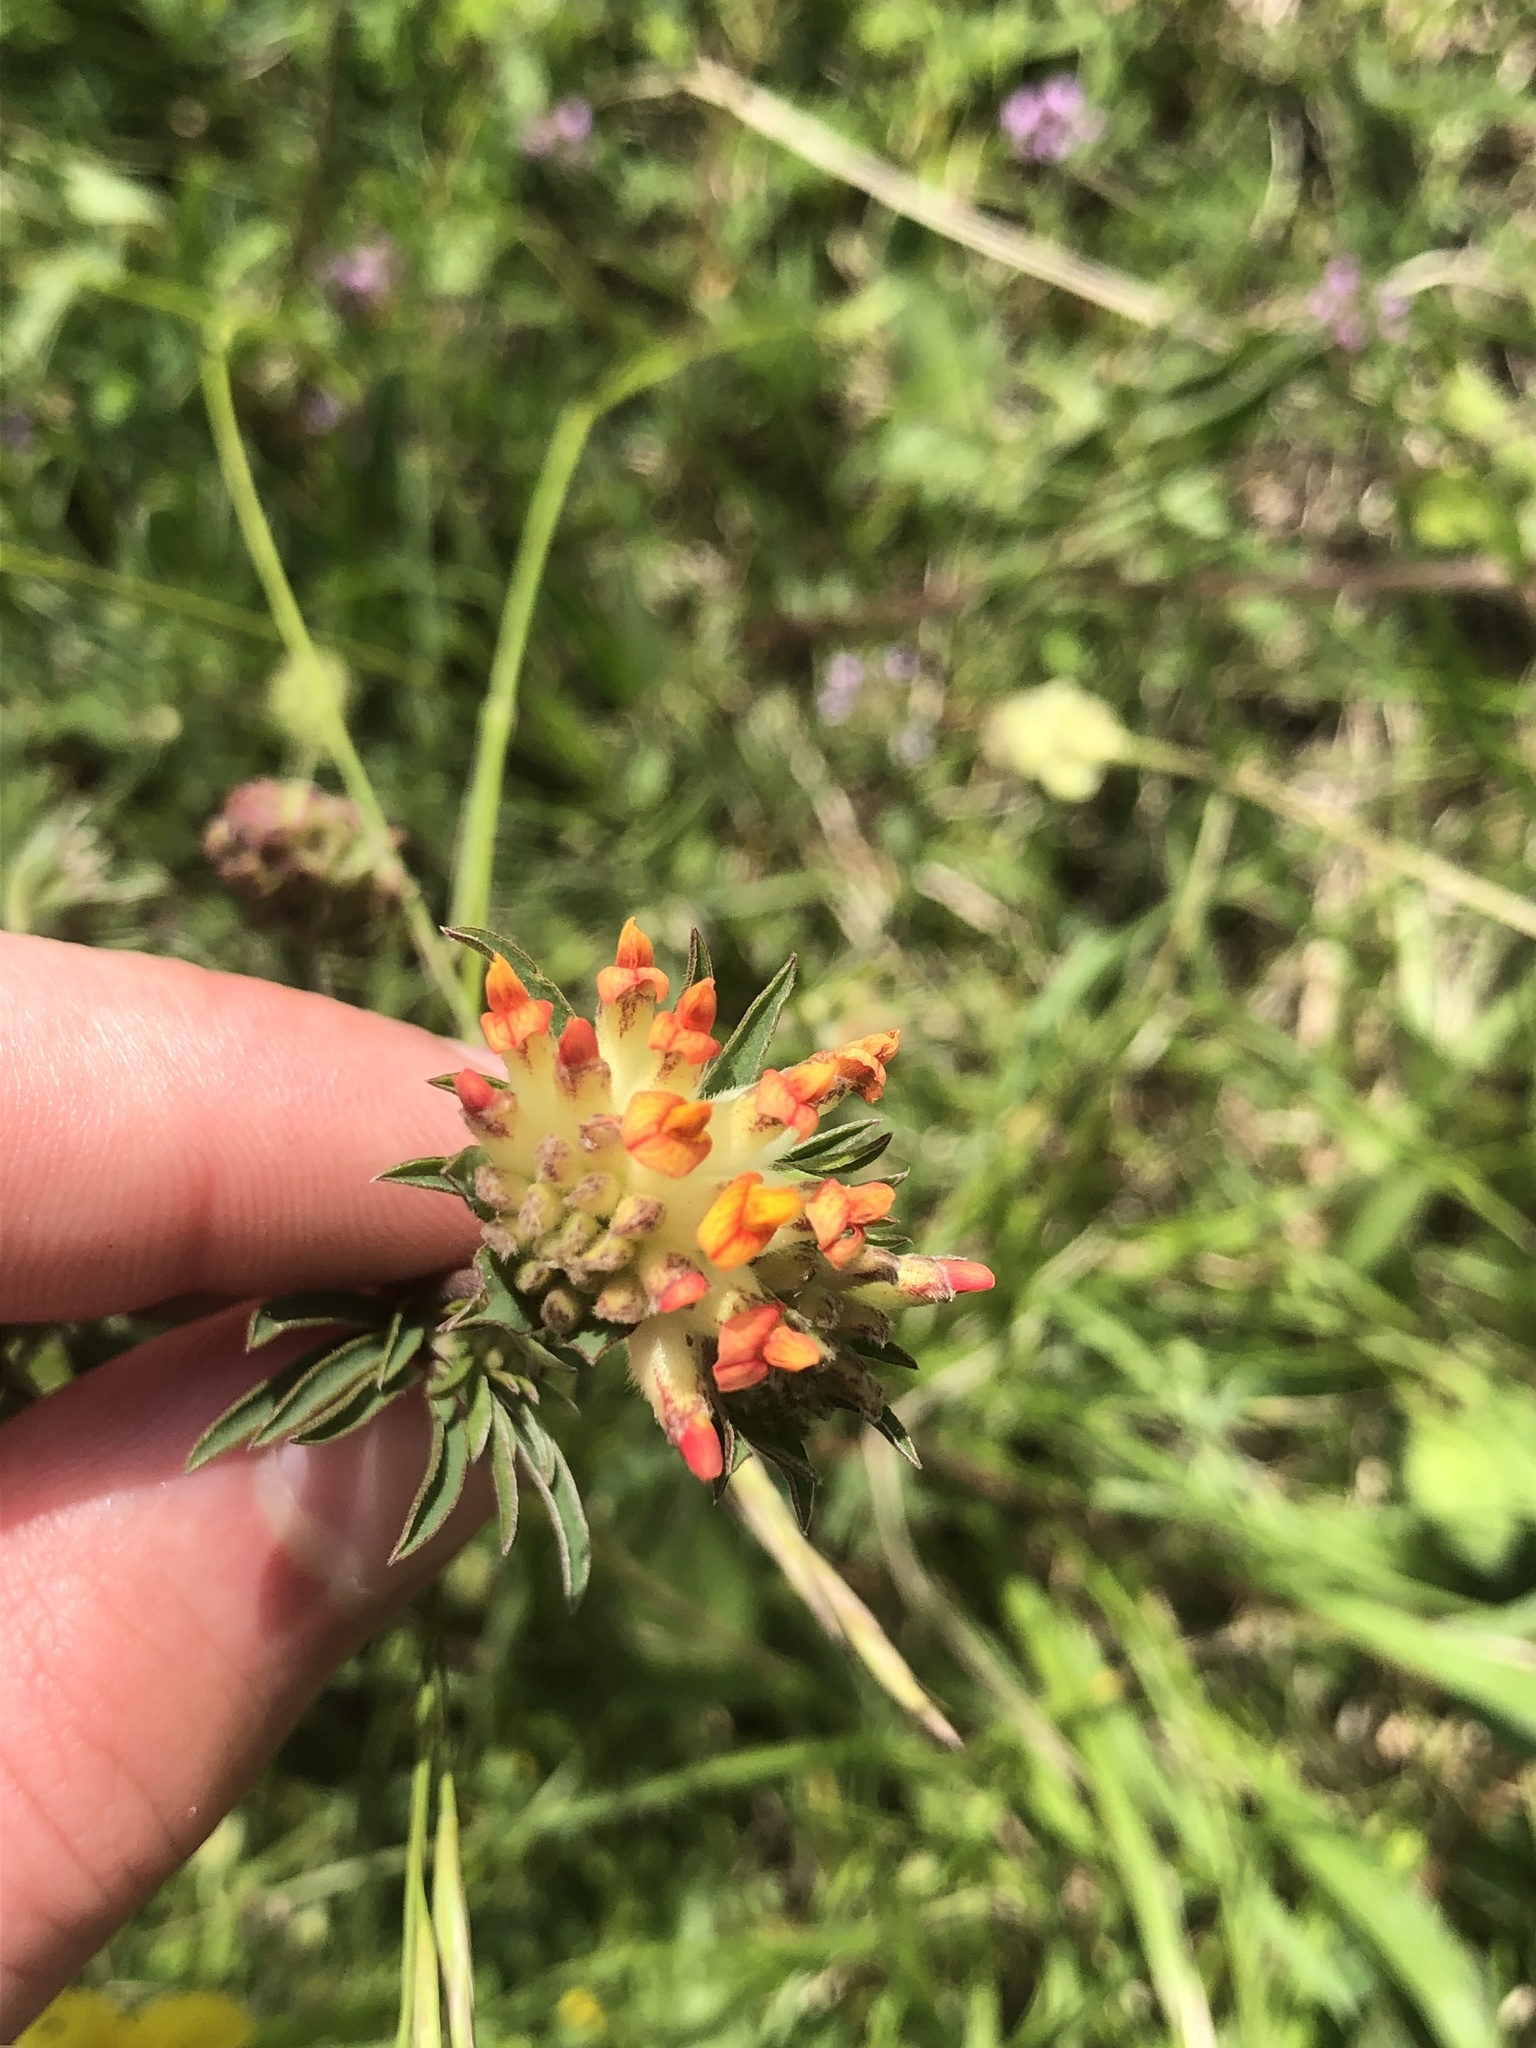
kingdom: Plantae
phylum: Tracheophyta
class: Magnoliopsida
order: Fabales
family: Fabaceae
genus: Anthyllis
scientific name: Anthyllis vulneraria
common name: Kidney vetch
